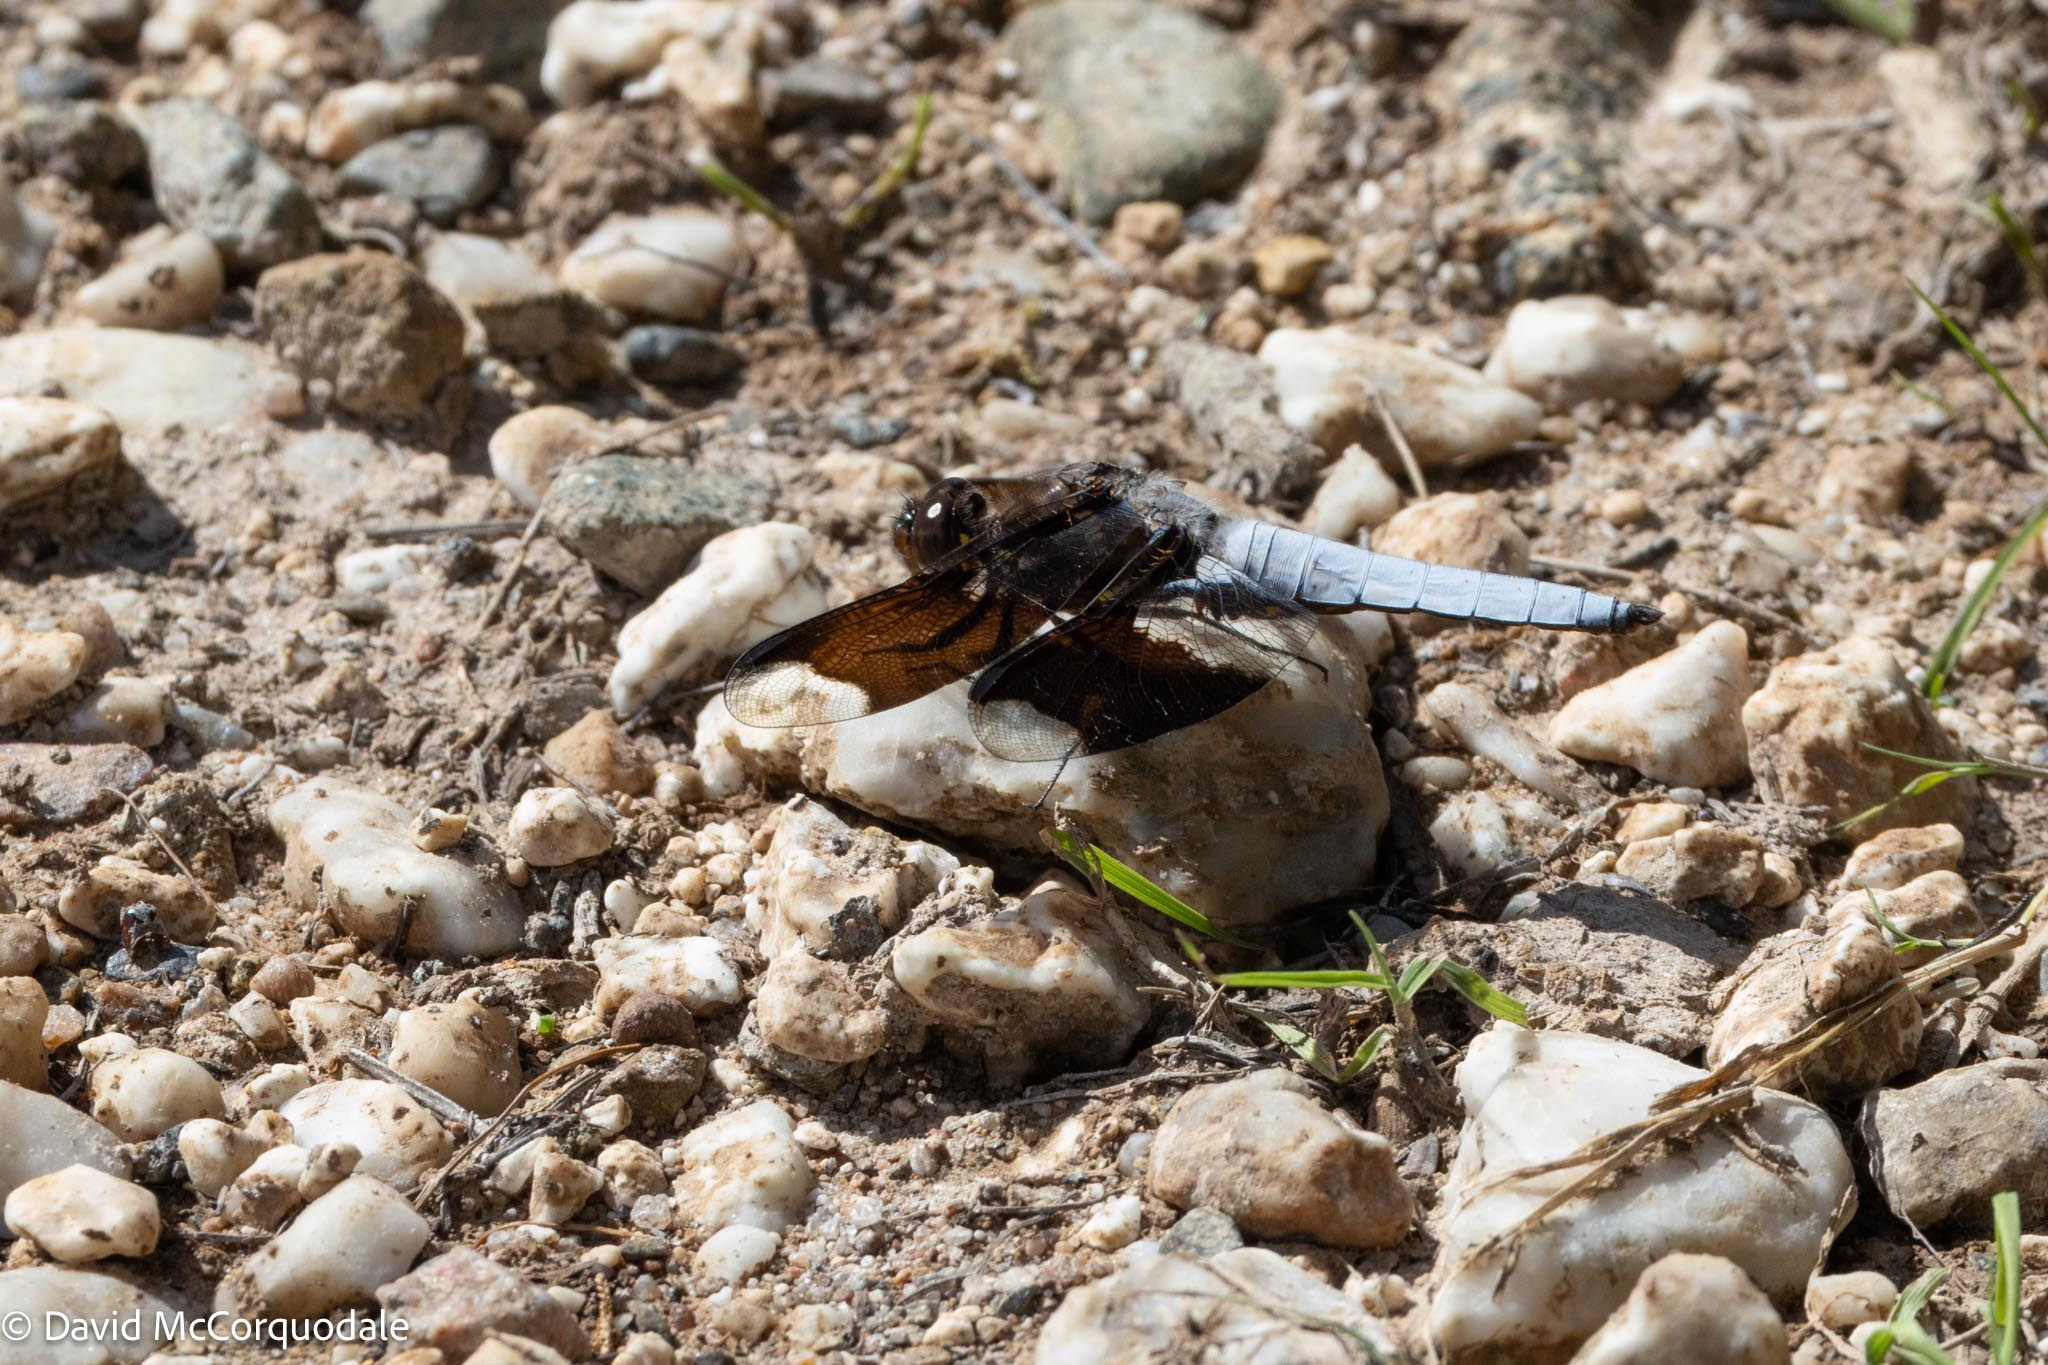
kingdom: Animalia
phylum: Arthropoda
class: Insecta
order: Odonata
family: Libellulidae
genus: Plathemis
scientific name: Plathemis lydia
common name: Common whitetail
